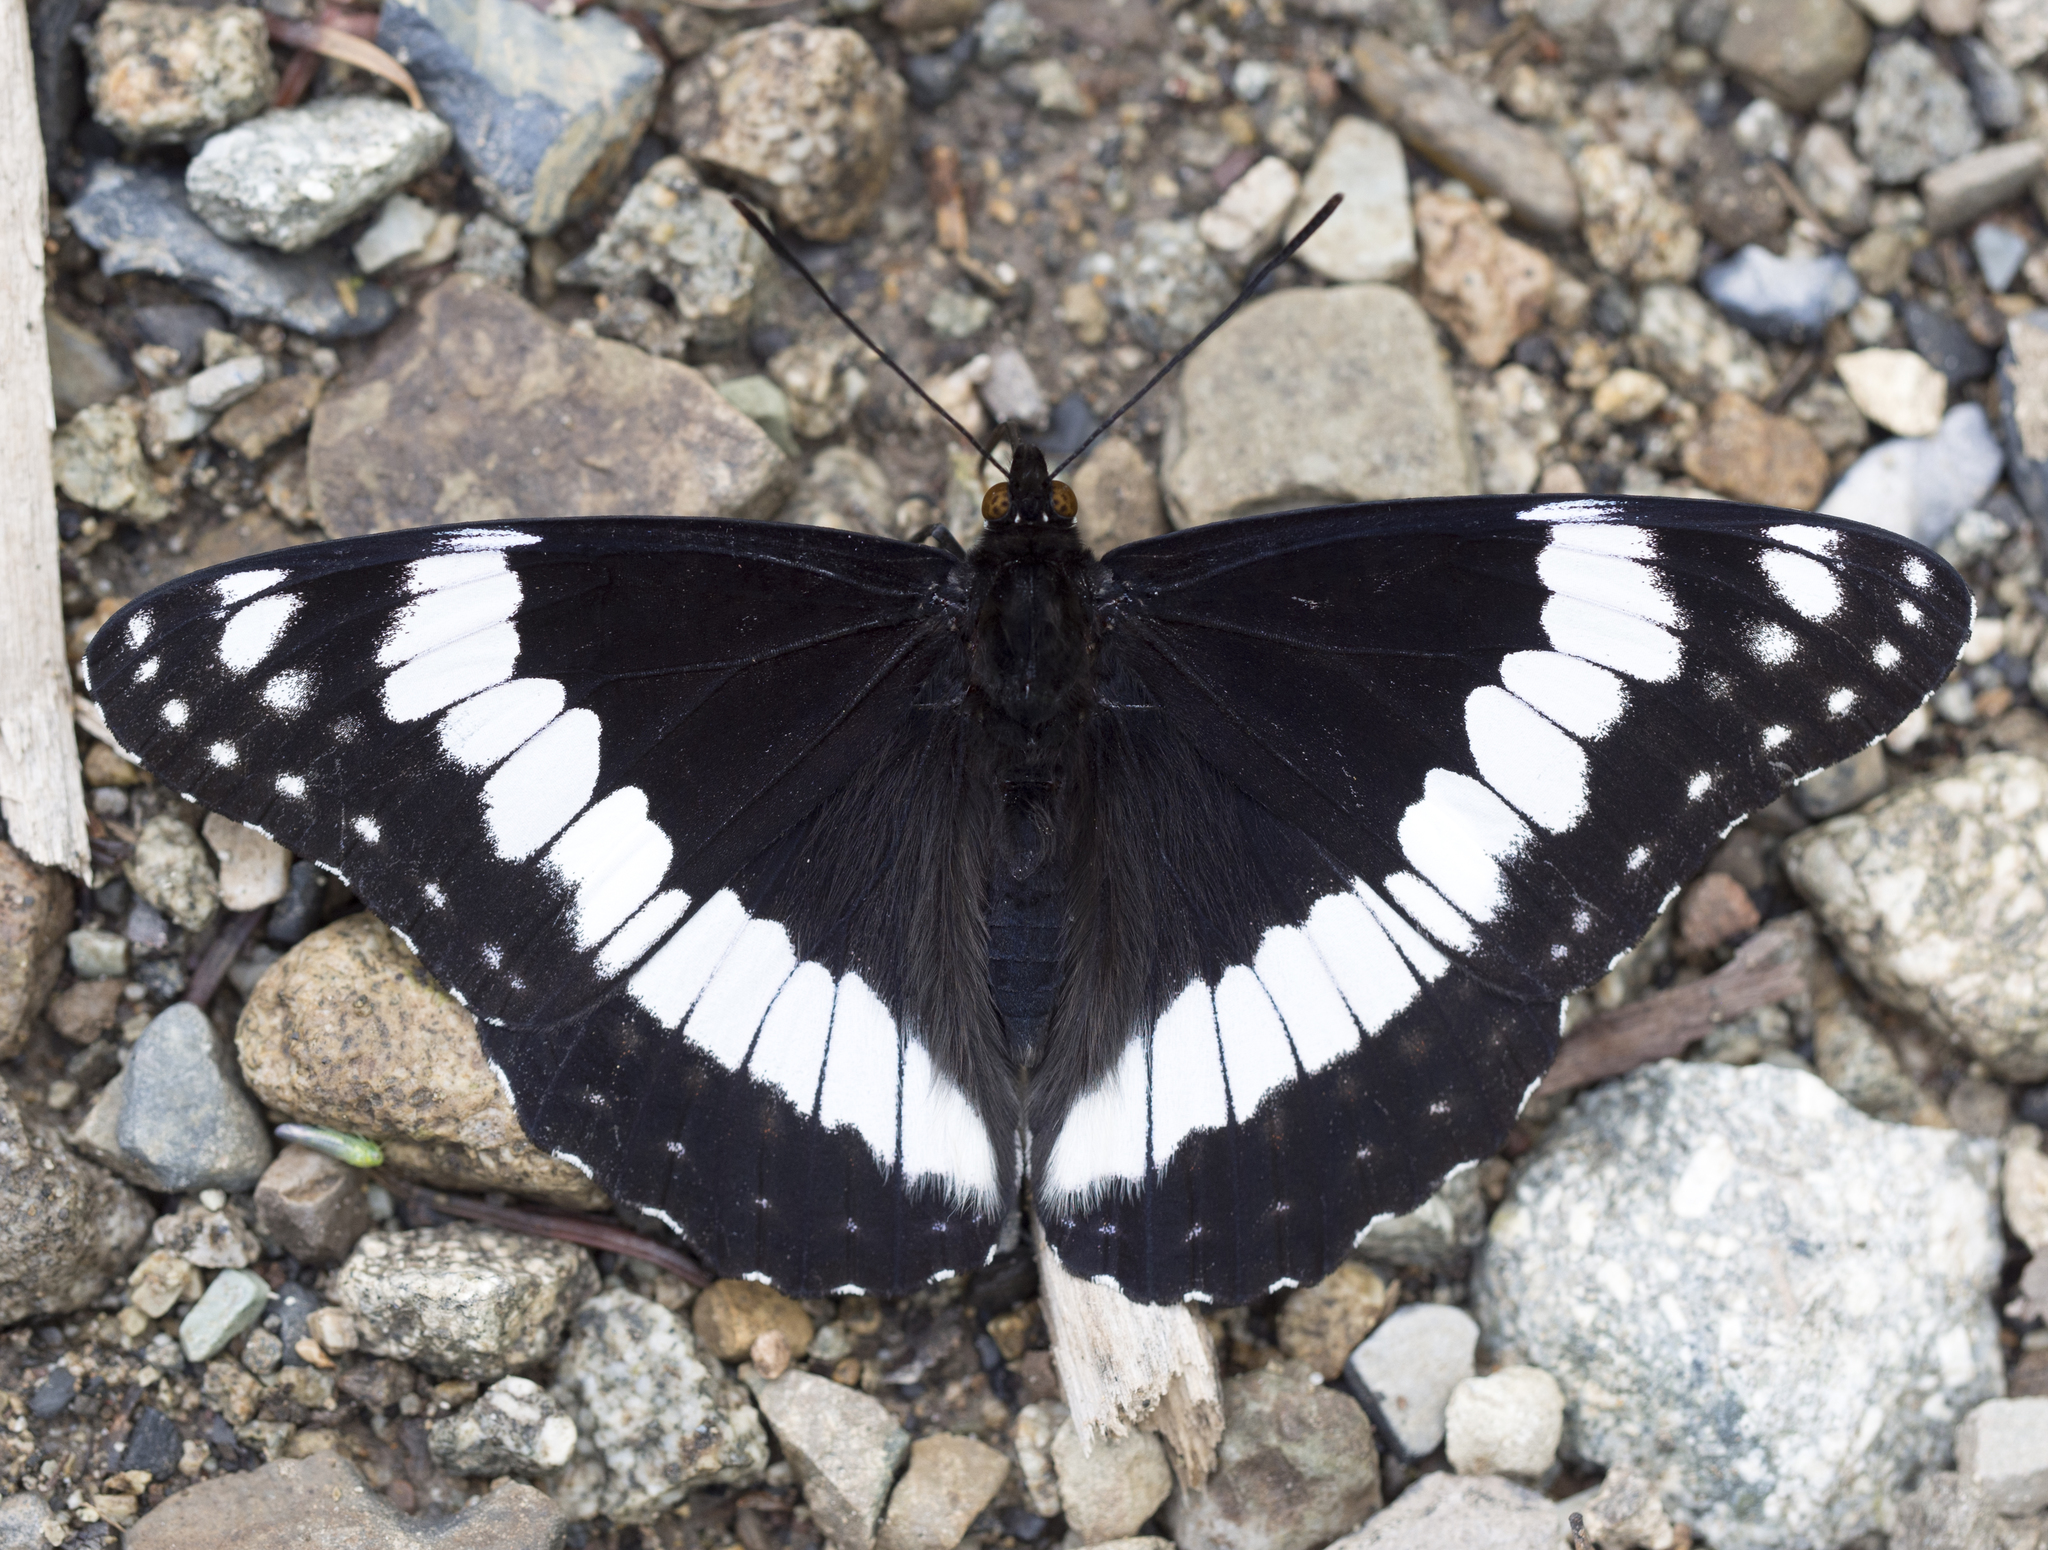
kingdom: Animalia
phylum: Arthropoda
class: Insecta
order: Lepidoptera
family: Nymphalidae
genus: Limenitis
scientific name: Limenitis weidemeyerii
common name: Weidemeyer's admiral
